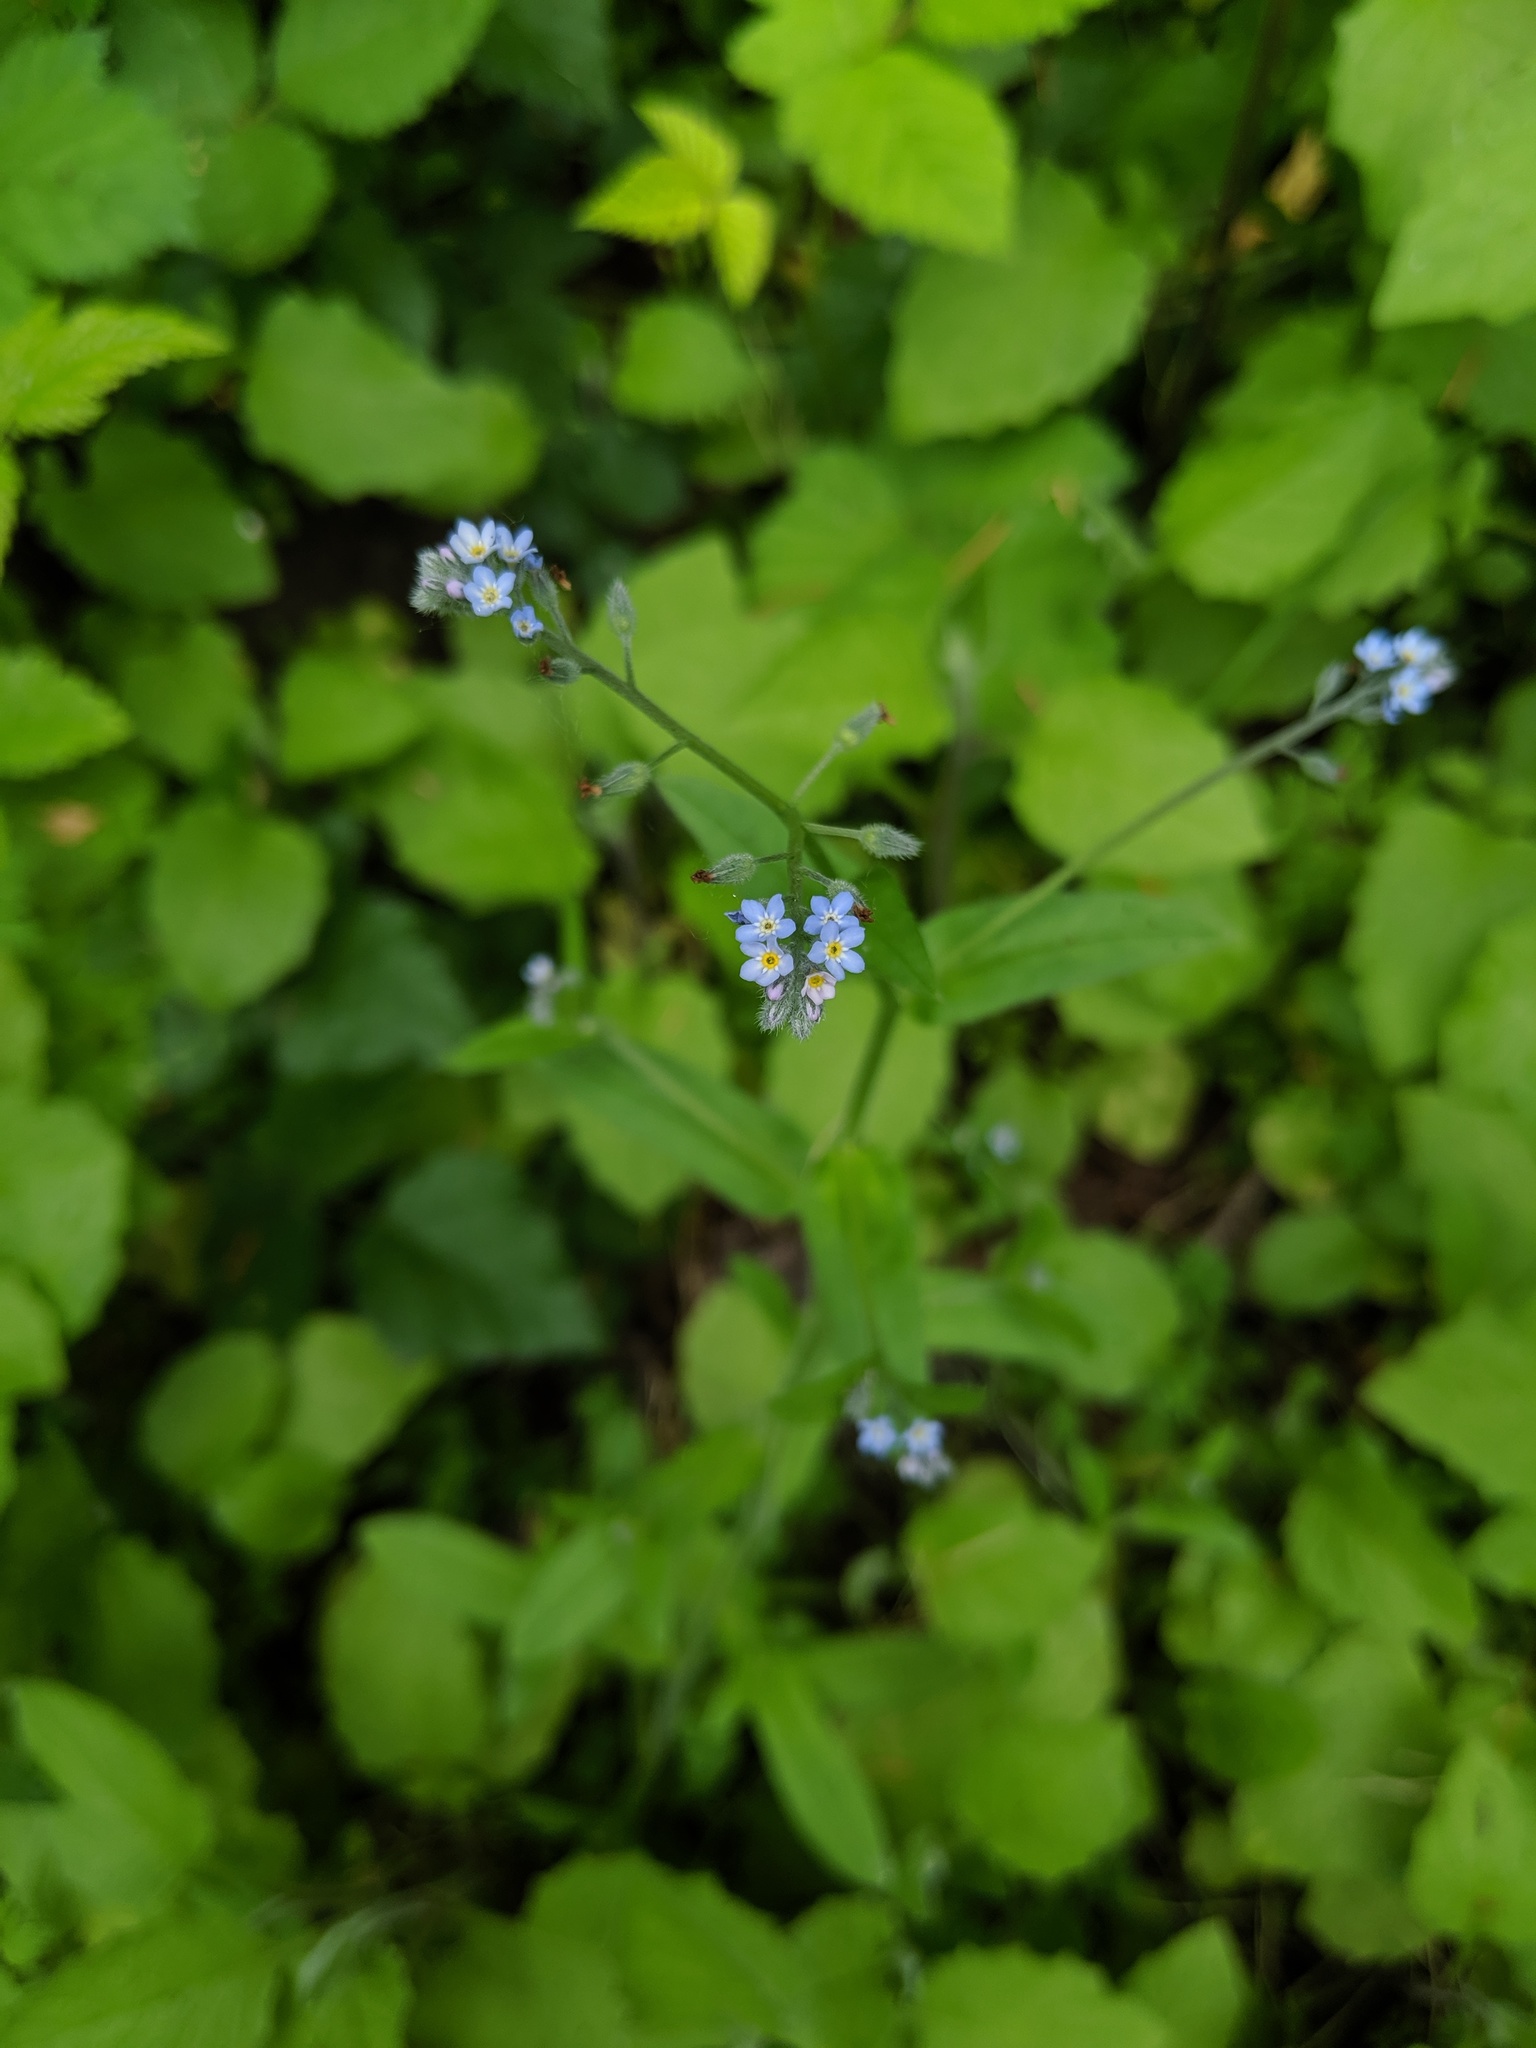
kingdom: Plantae
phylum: Tracheophyta
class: Magnoliopsida
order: Boraginales
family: Boraginaceae
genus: Myosotis
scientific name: Myosotis laxa
